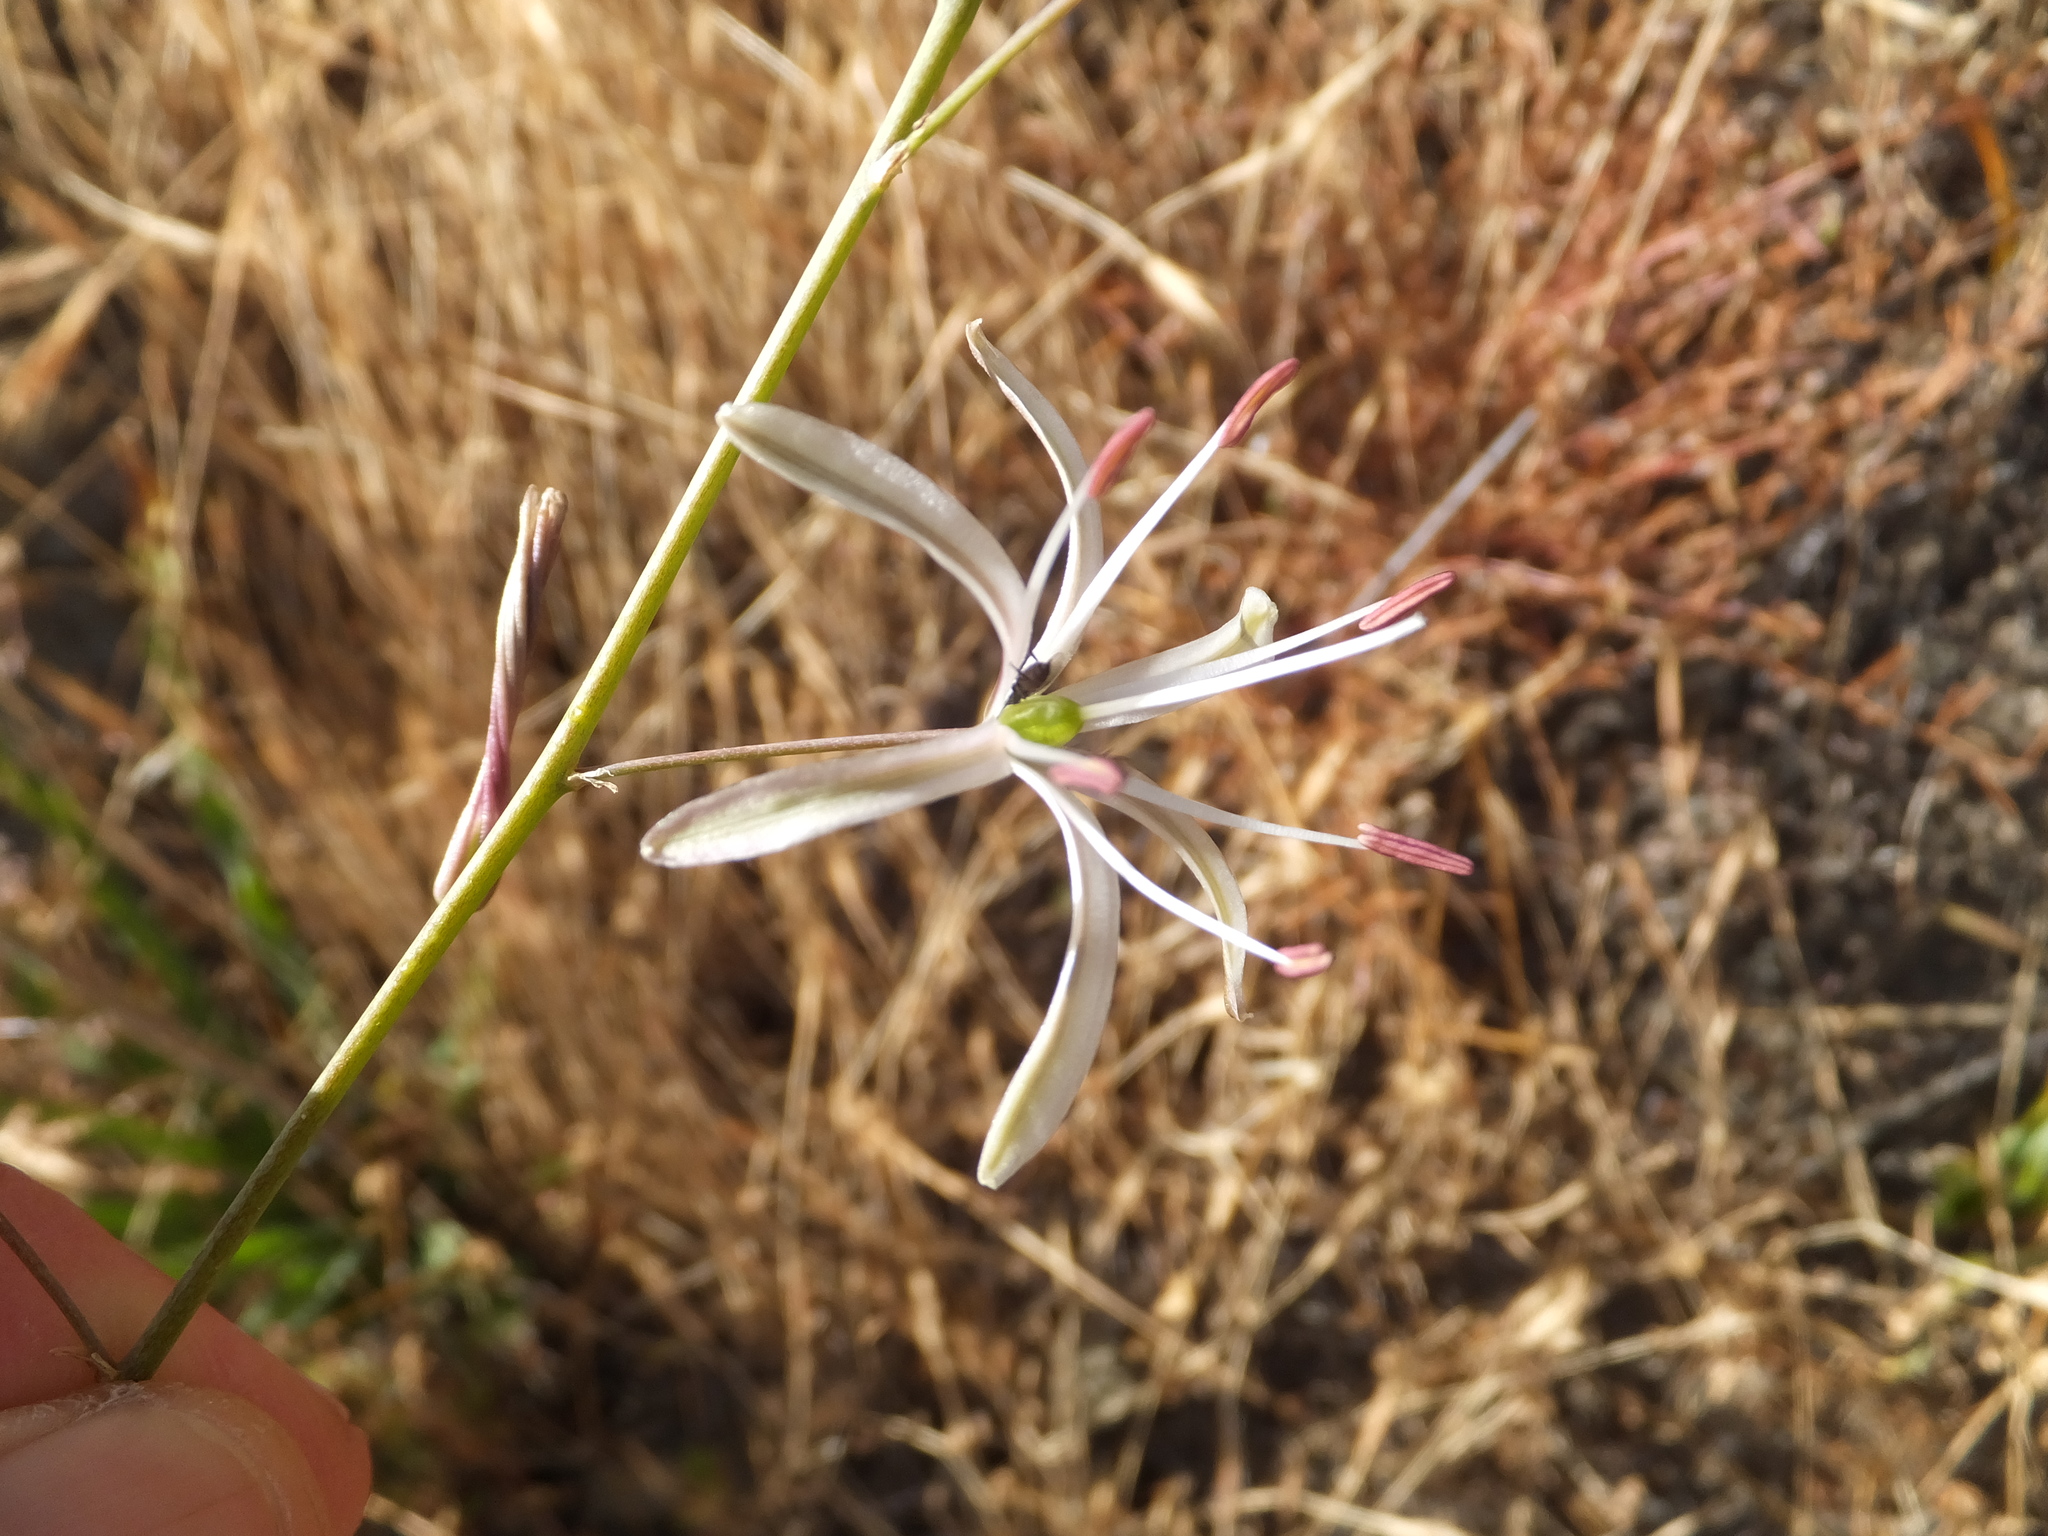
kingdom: Plantae
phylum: Tracheophyta
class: Liliopsida
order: Asparagales
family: Asparagaceae
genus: Chlorogalum
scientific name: Chlorogalum pomeridianum
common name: Amole
